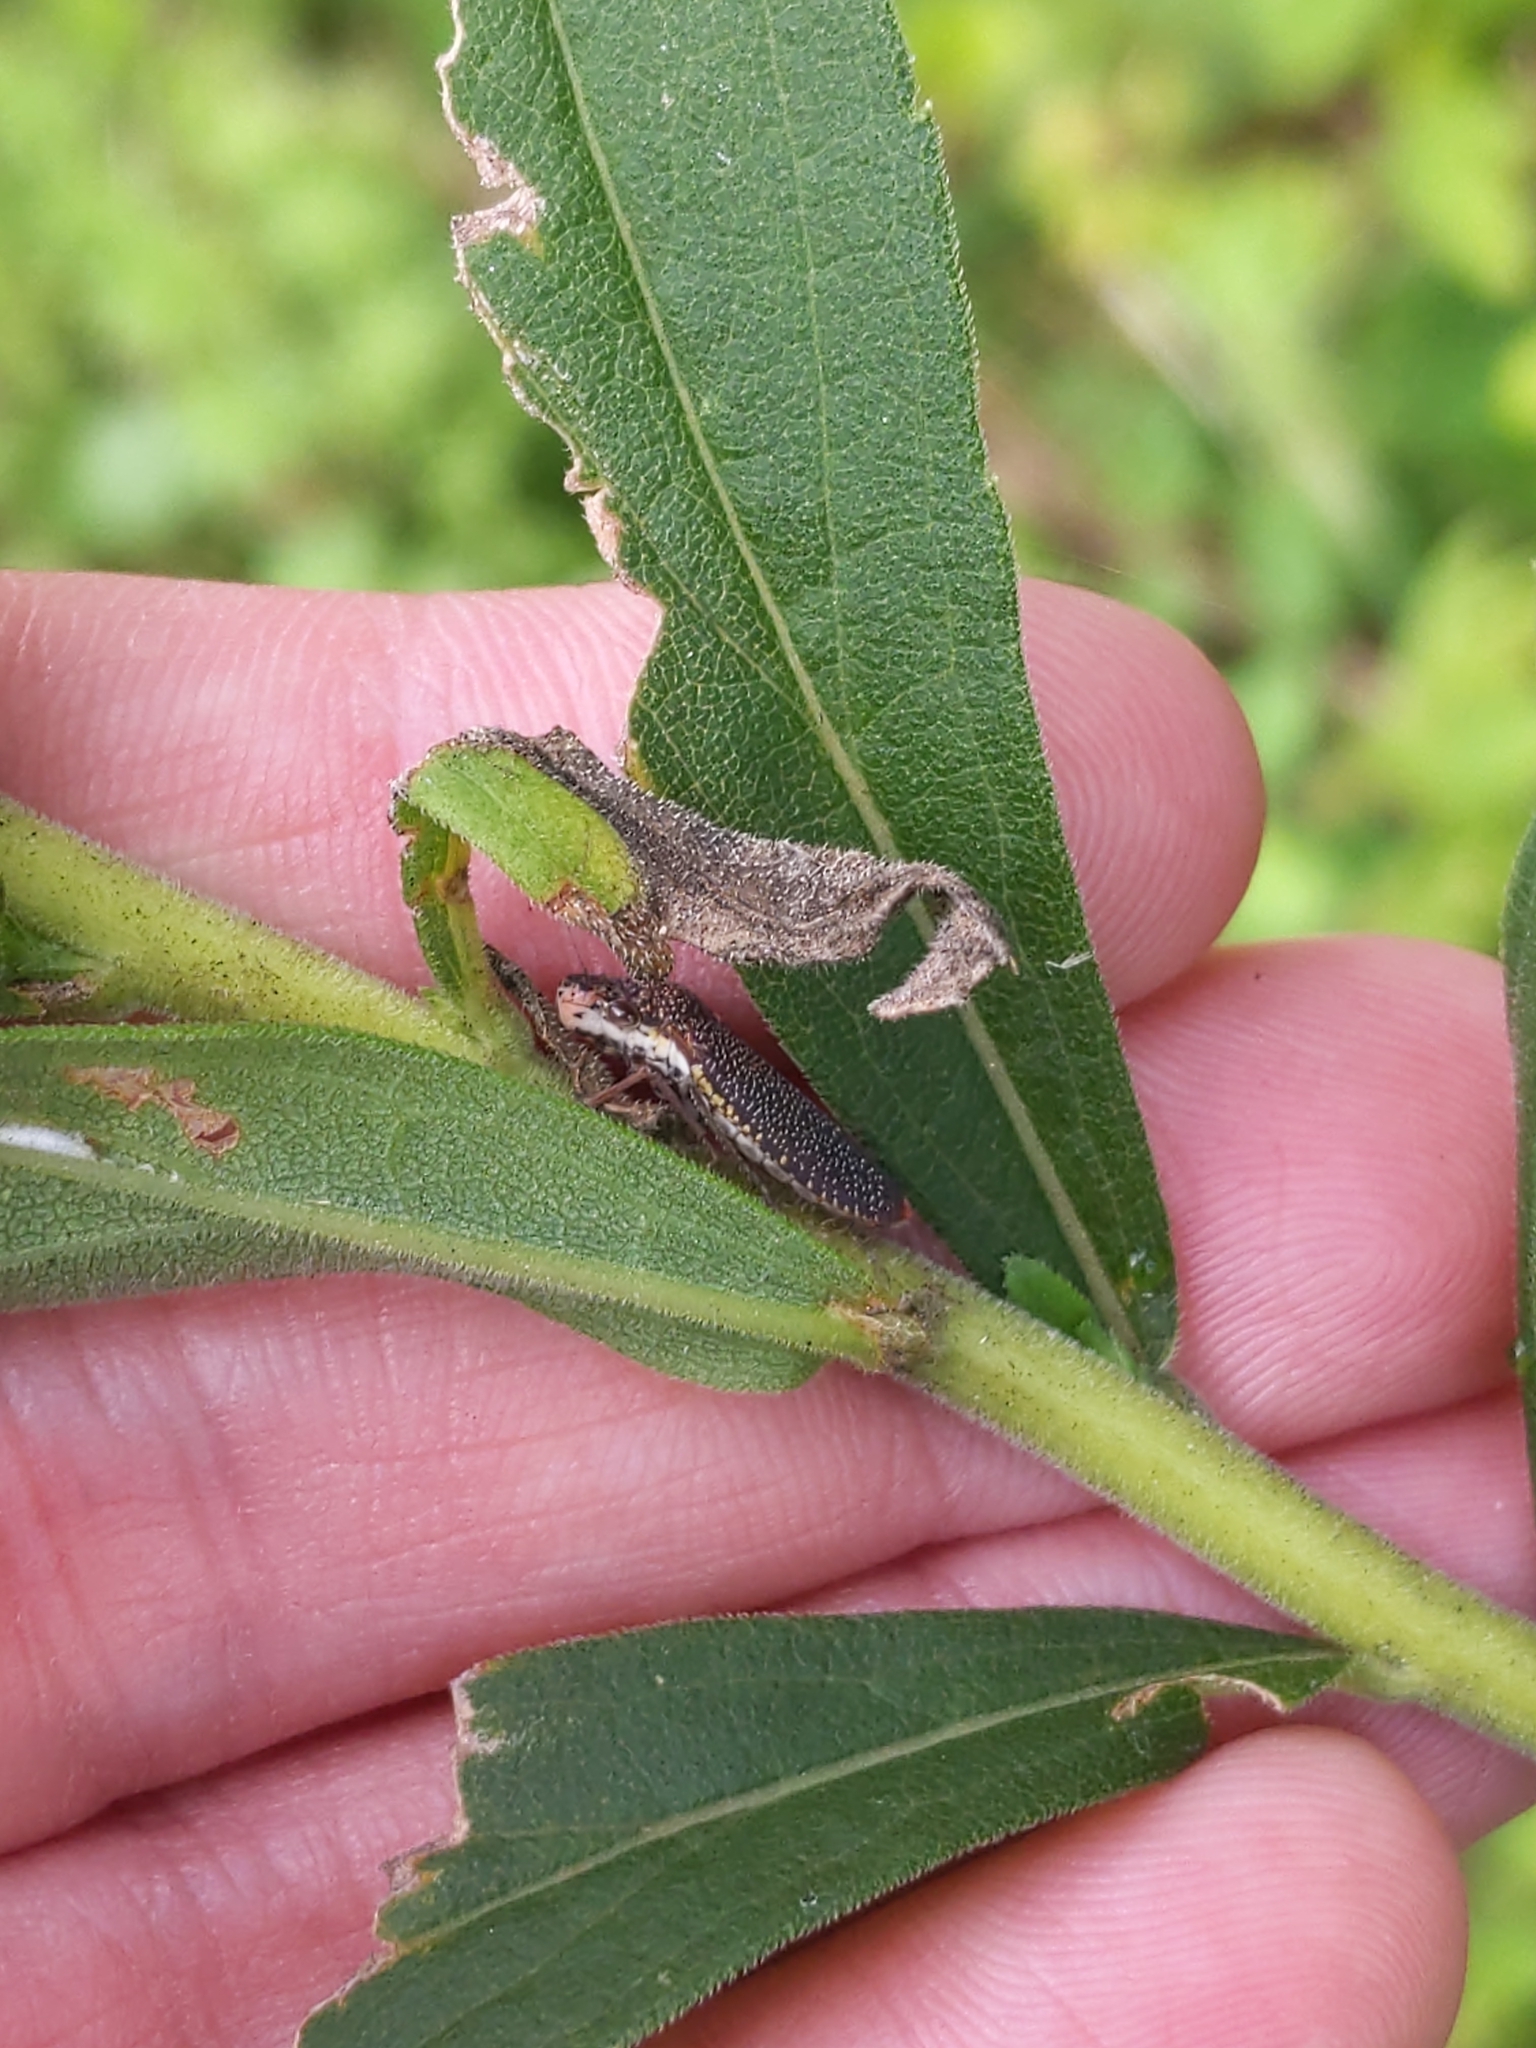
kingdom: Animalia
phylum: Arthropoda
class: Insecta
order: Hemiptera
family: Cicadellidae
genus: Paraulacizes
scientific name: Paraulacizes irrorata
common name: Speckled sharpshooter
